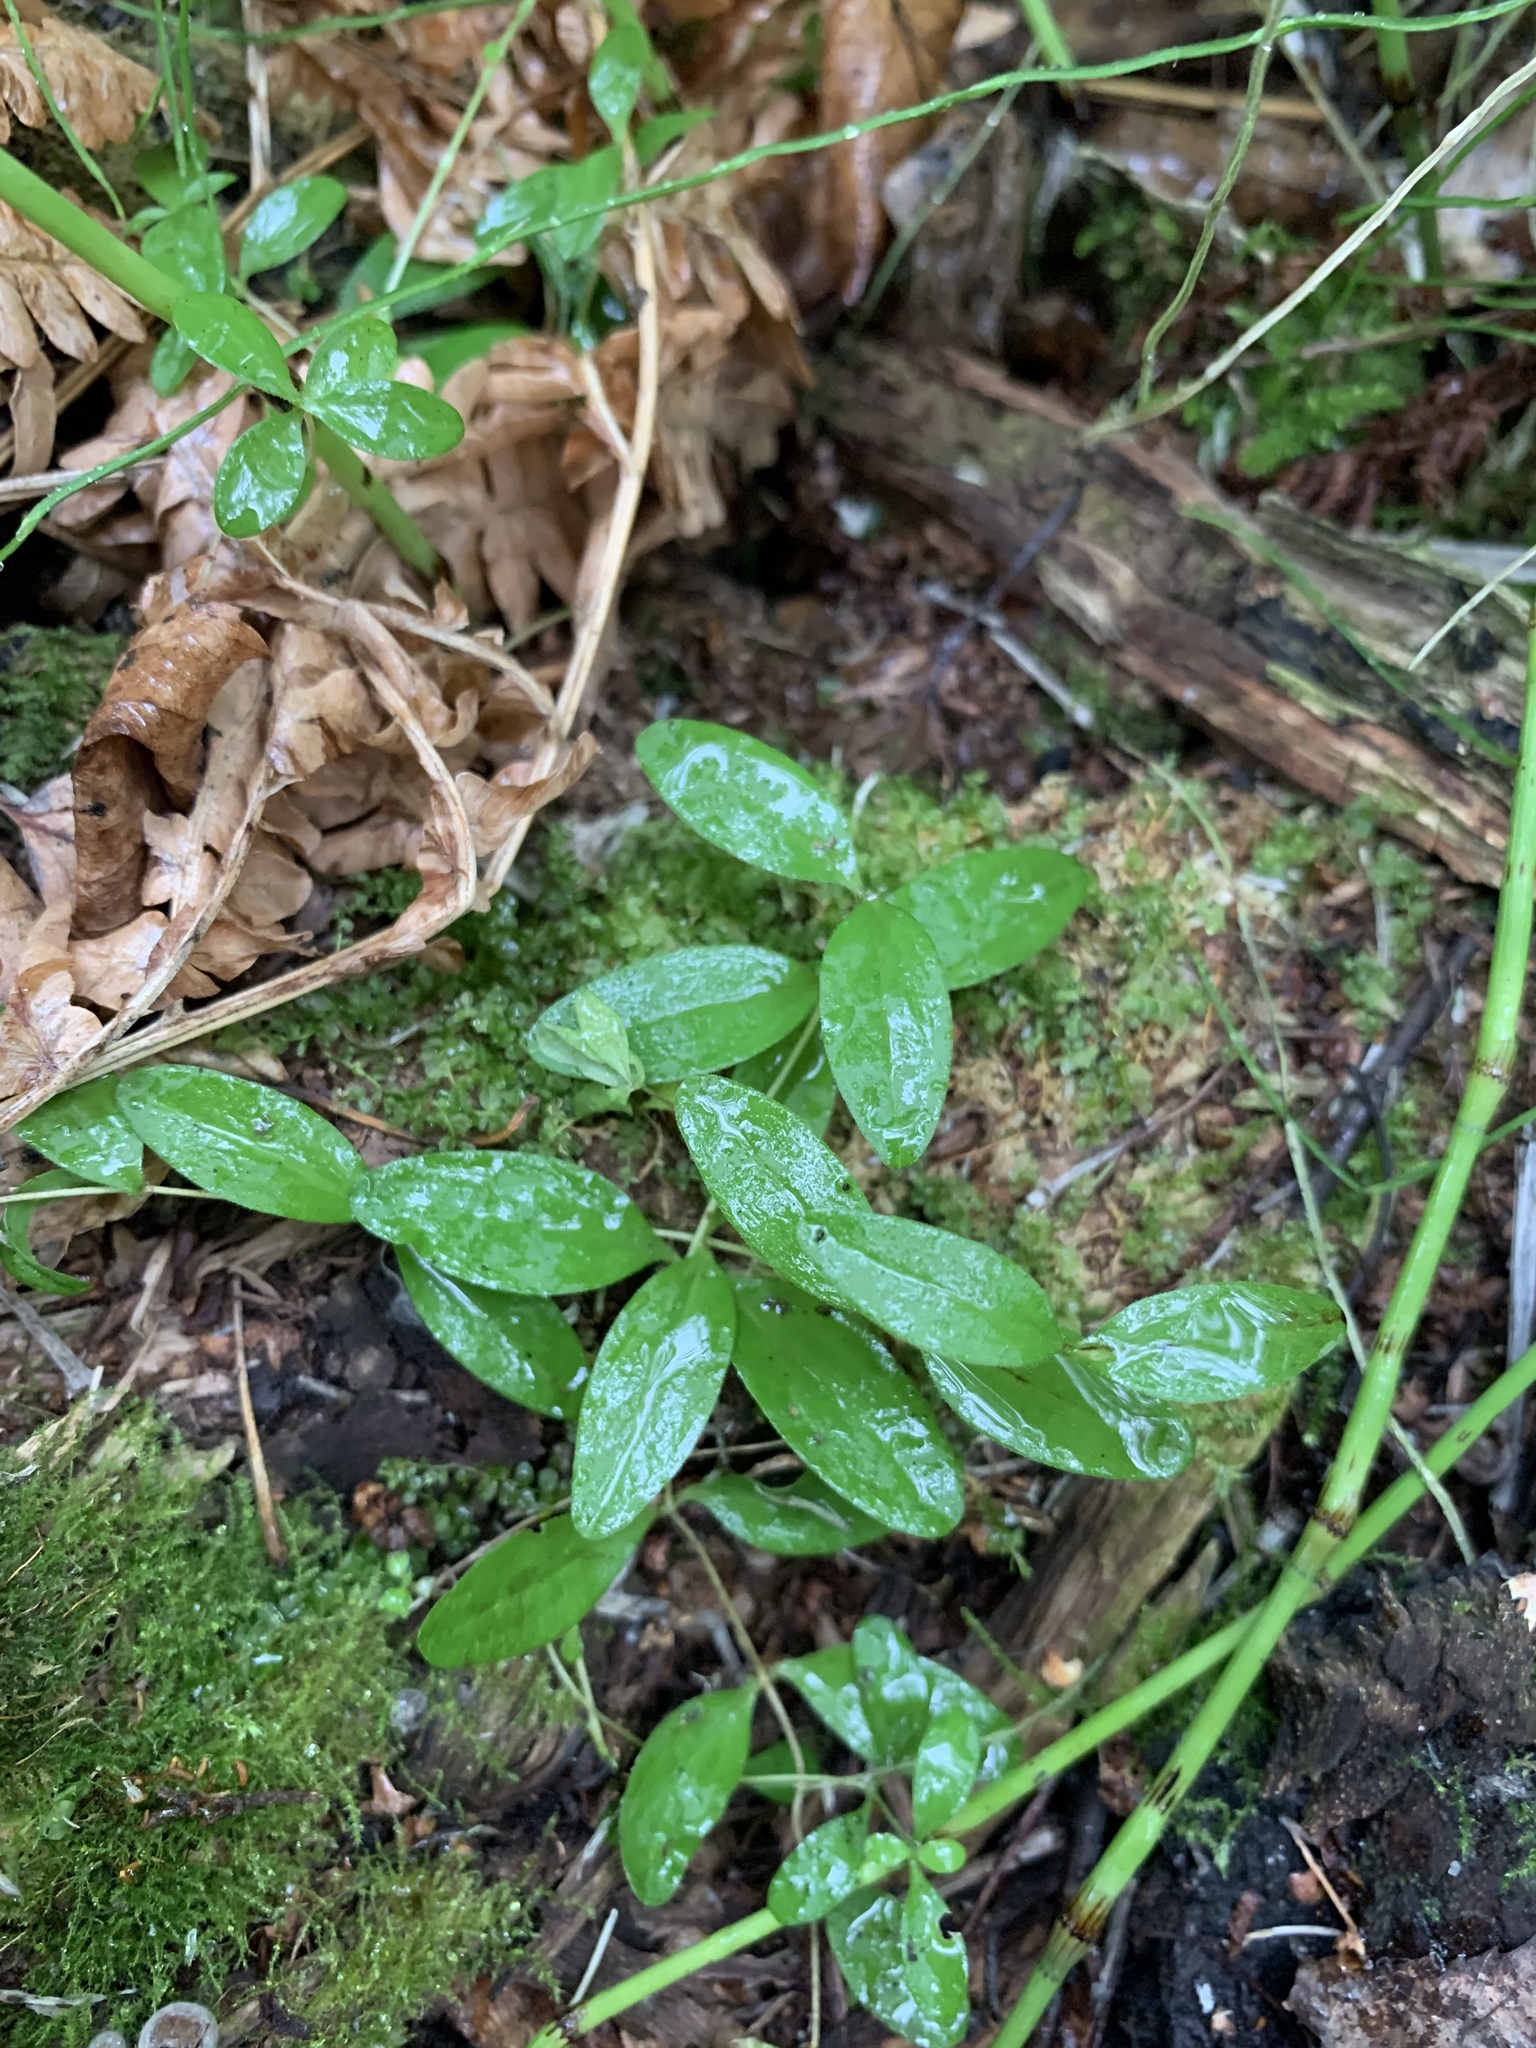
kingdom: Plantae
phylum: Tracheophyta
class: Magnoliopsida
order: Caryophyllales
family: Caryophyllaceae
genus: Moehringia
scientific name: Moehringia lateriflora
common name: Blunt-leaved sandwort
